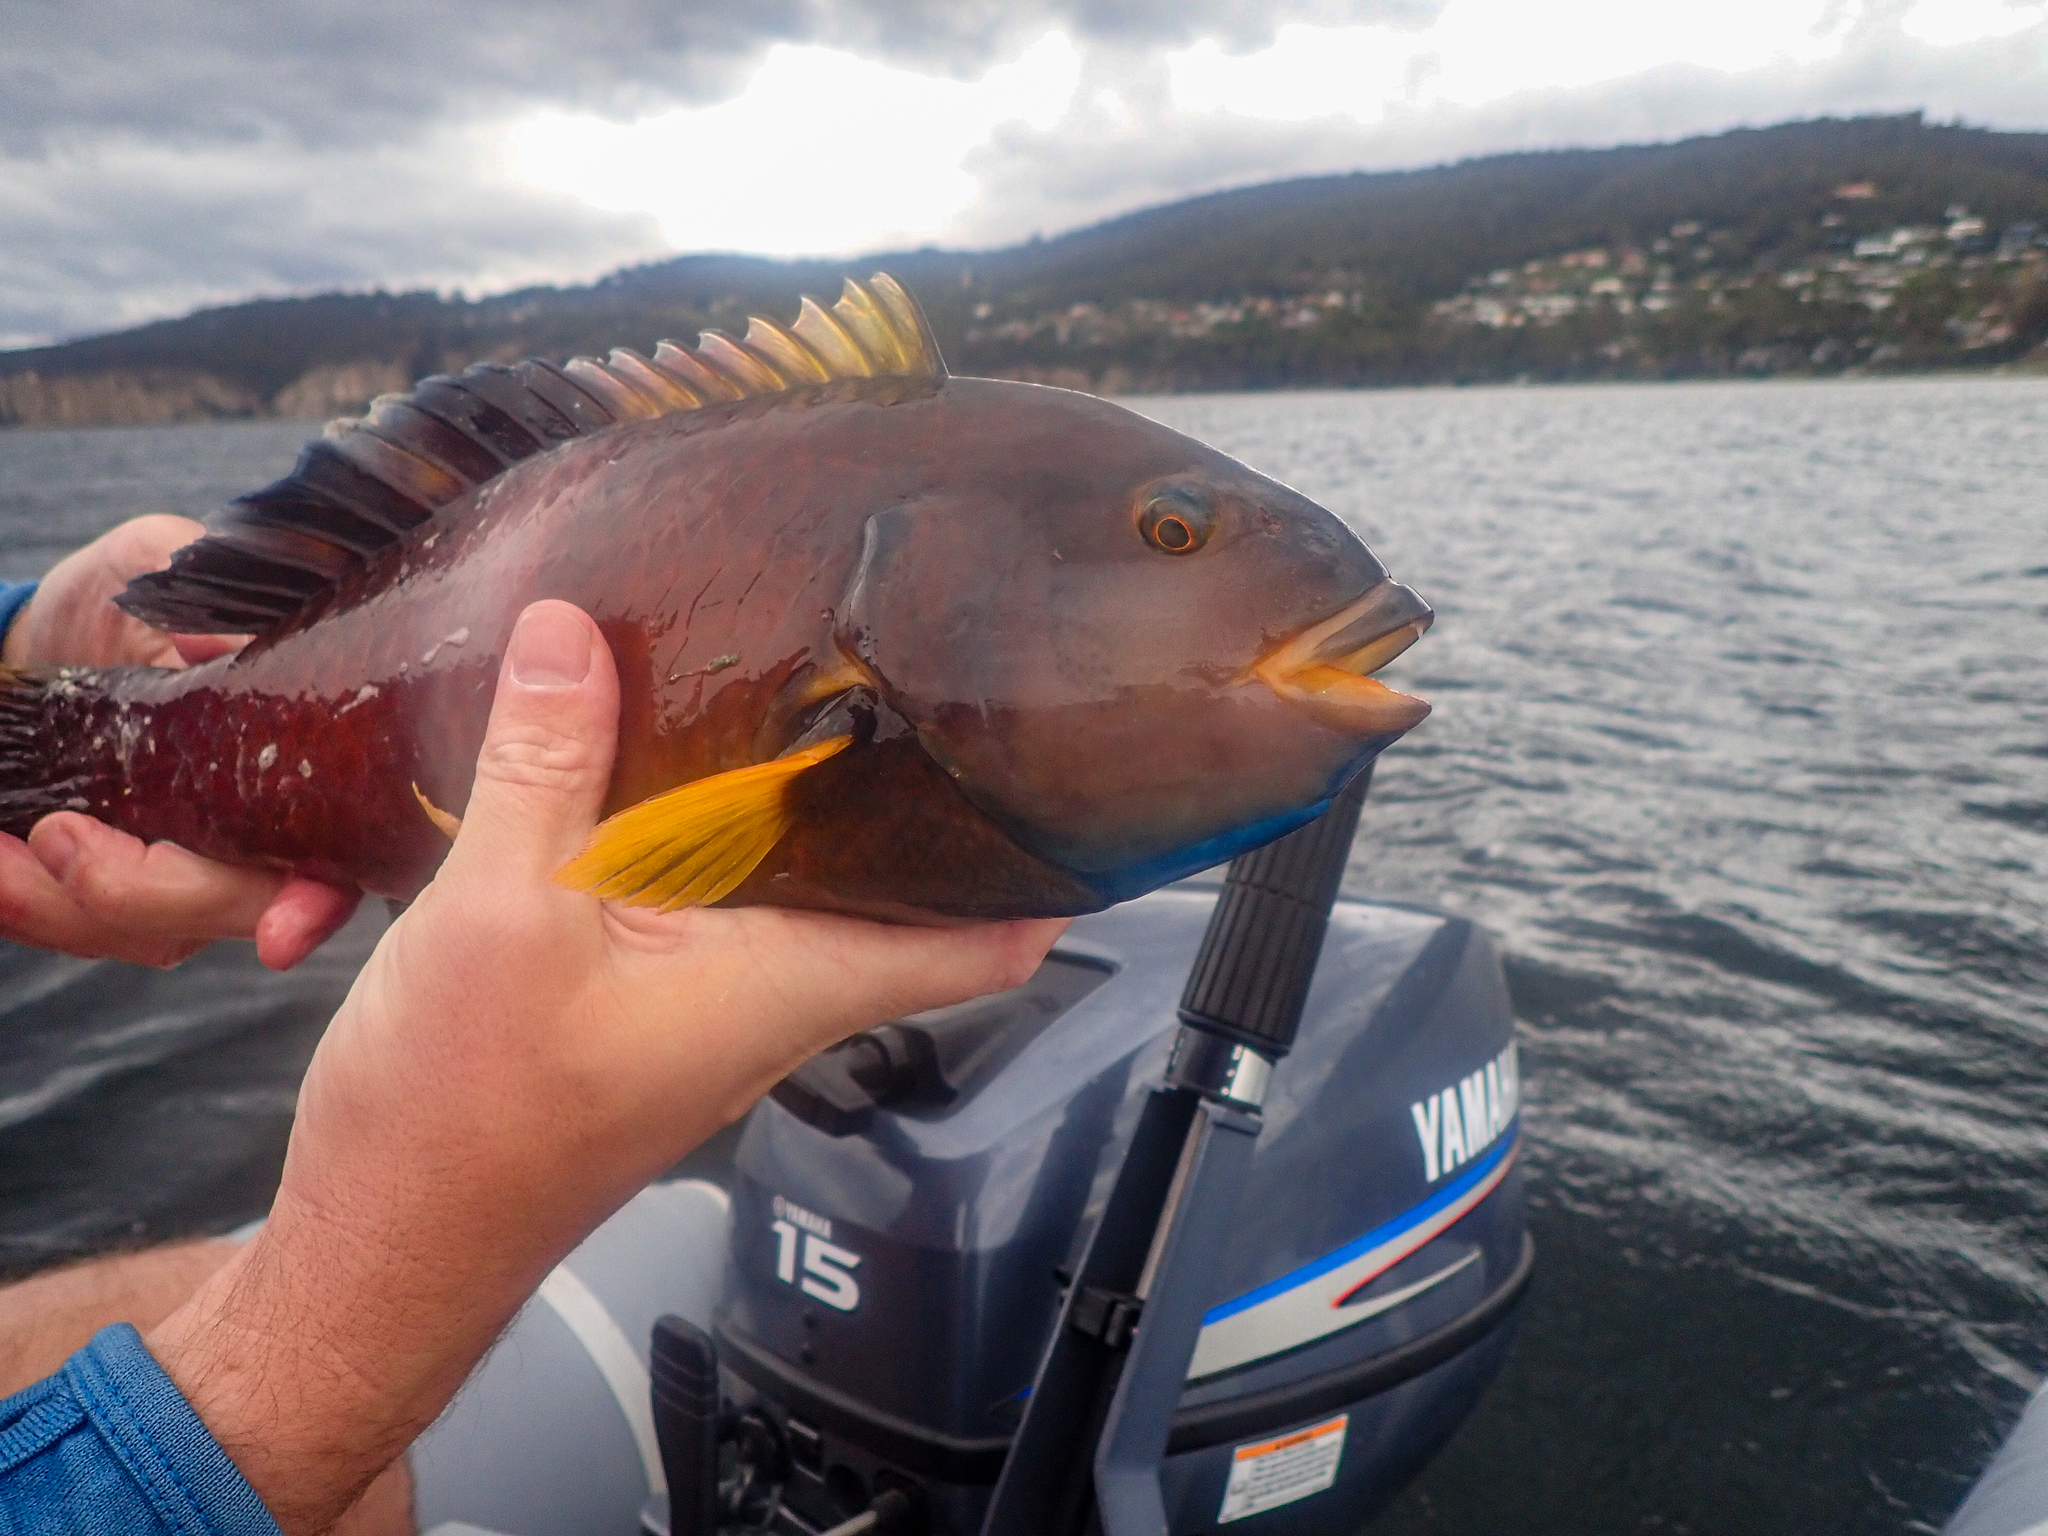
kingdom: Animalia
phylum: Chordata
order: Perciformes
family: Labridae
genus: Notolabrus
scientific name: Notolabrus tetricus
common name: Blue-throated parrotfish
